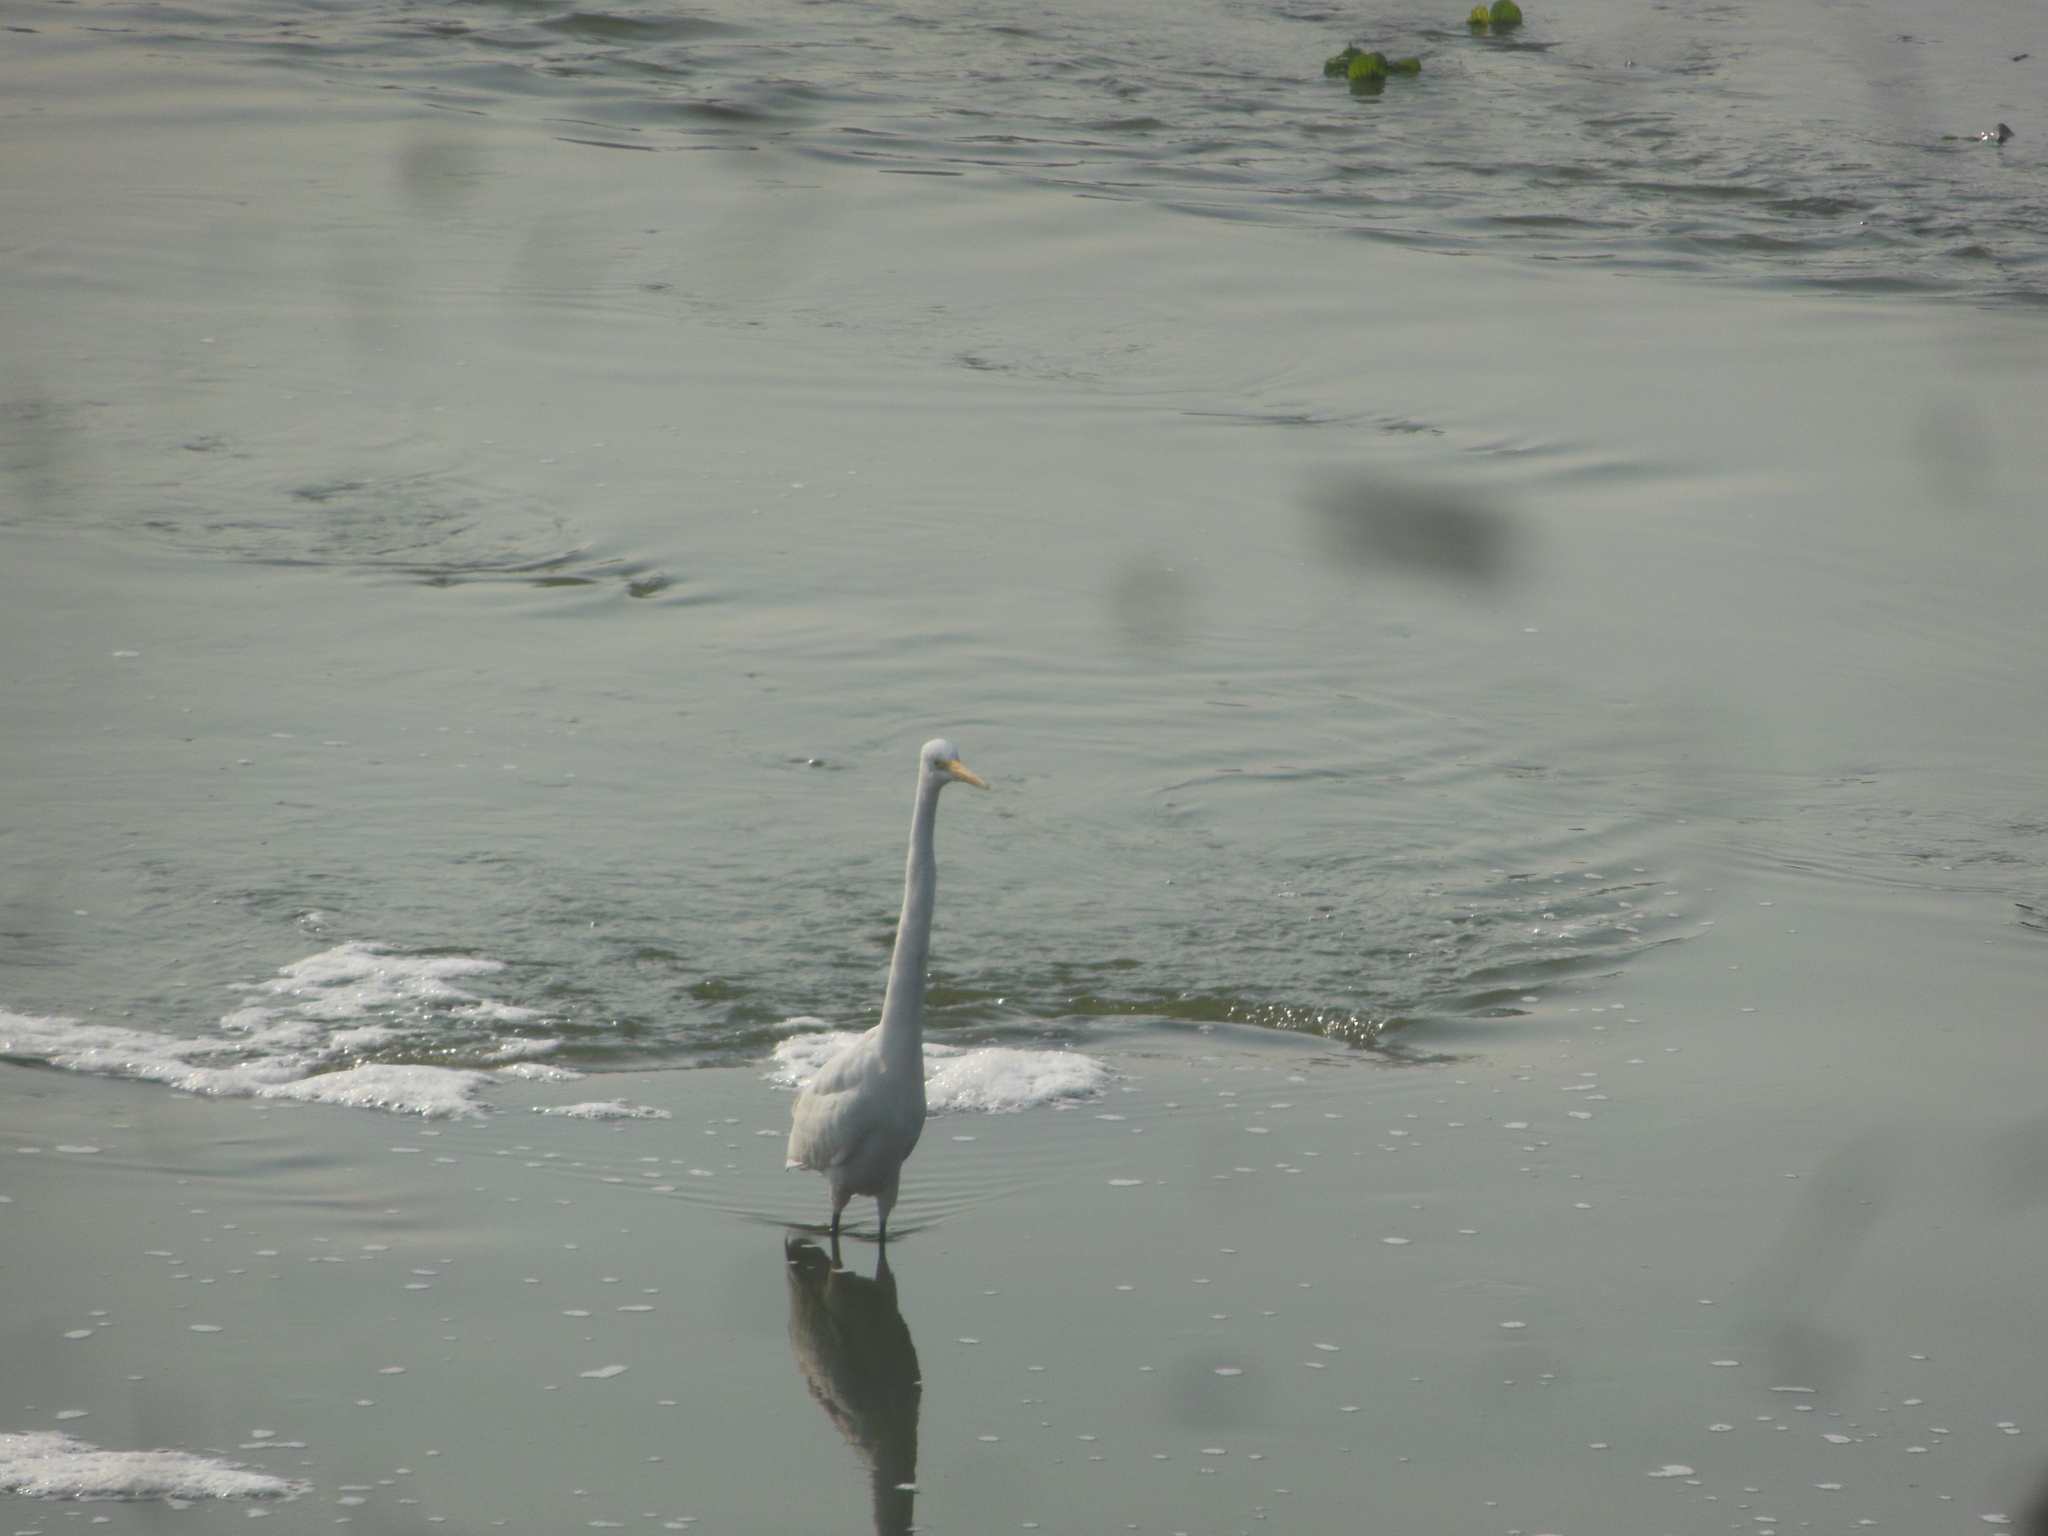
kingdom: Animalia
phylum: Chordata
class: Aves
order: Pelecaniformes
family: Ardeidae
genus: Ardea
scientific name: Ardea alba
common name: Great egret
